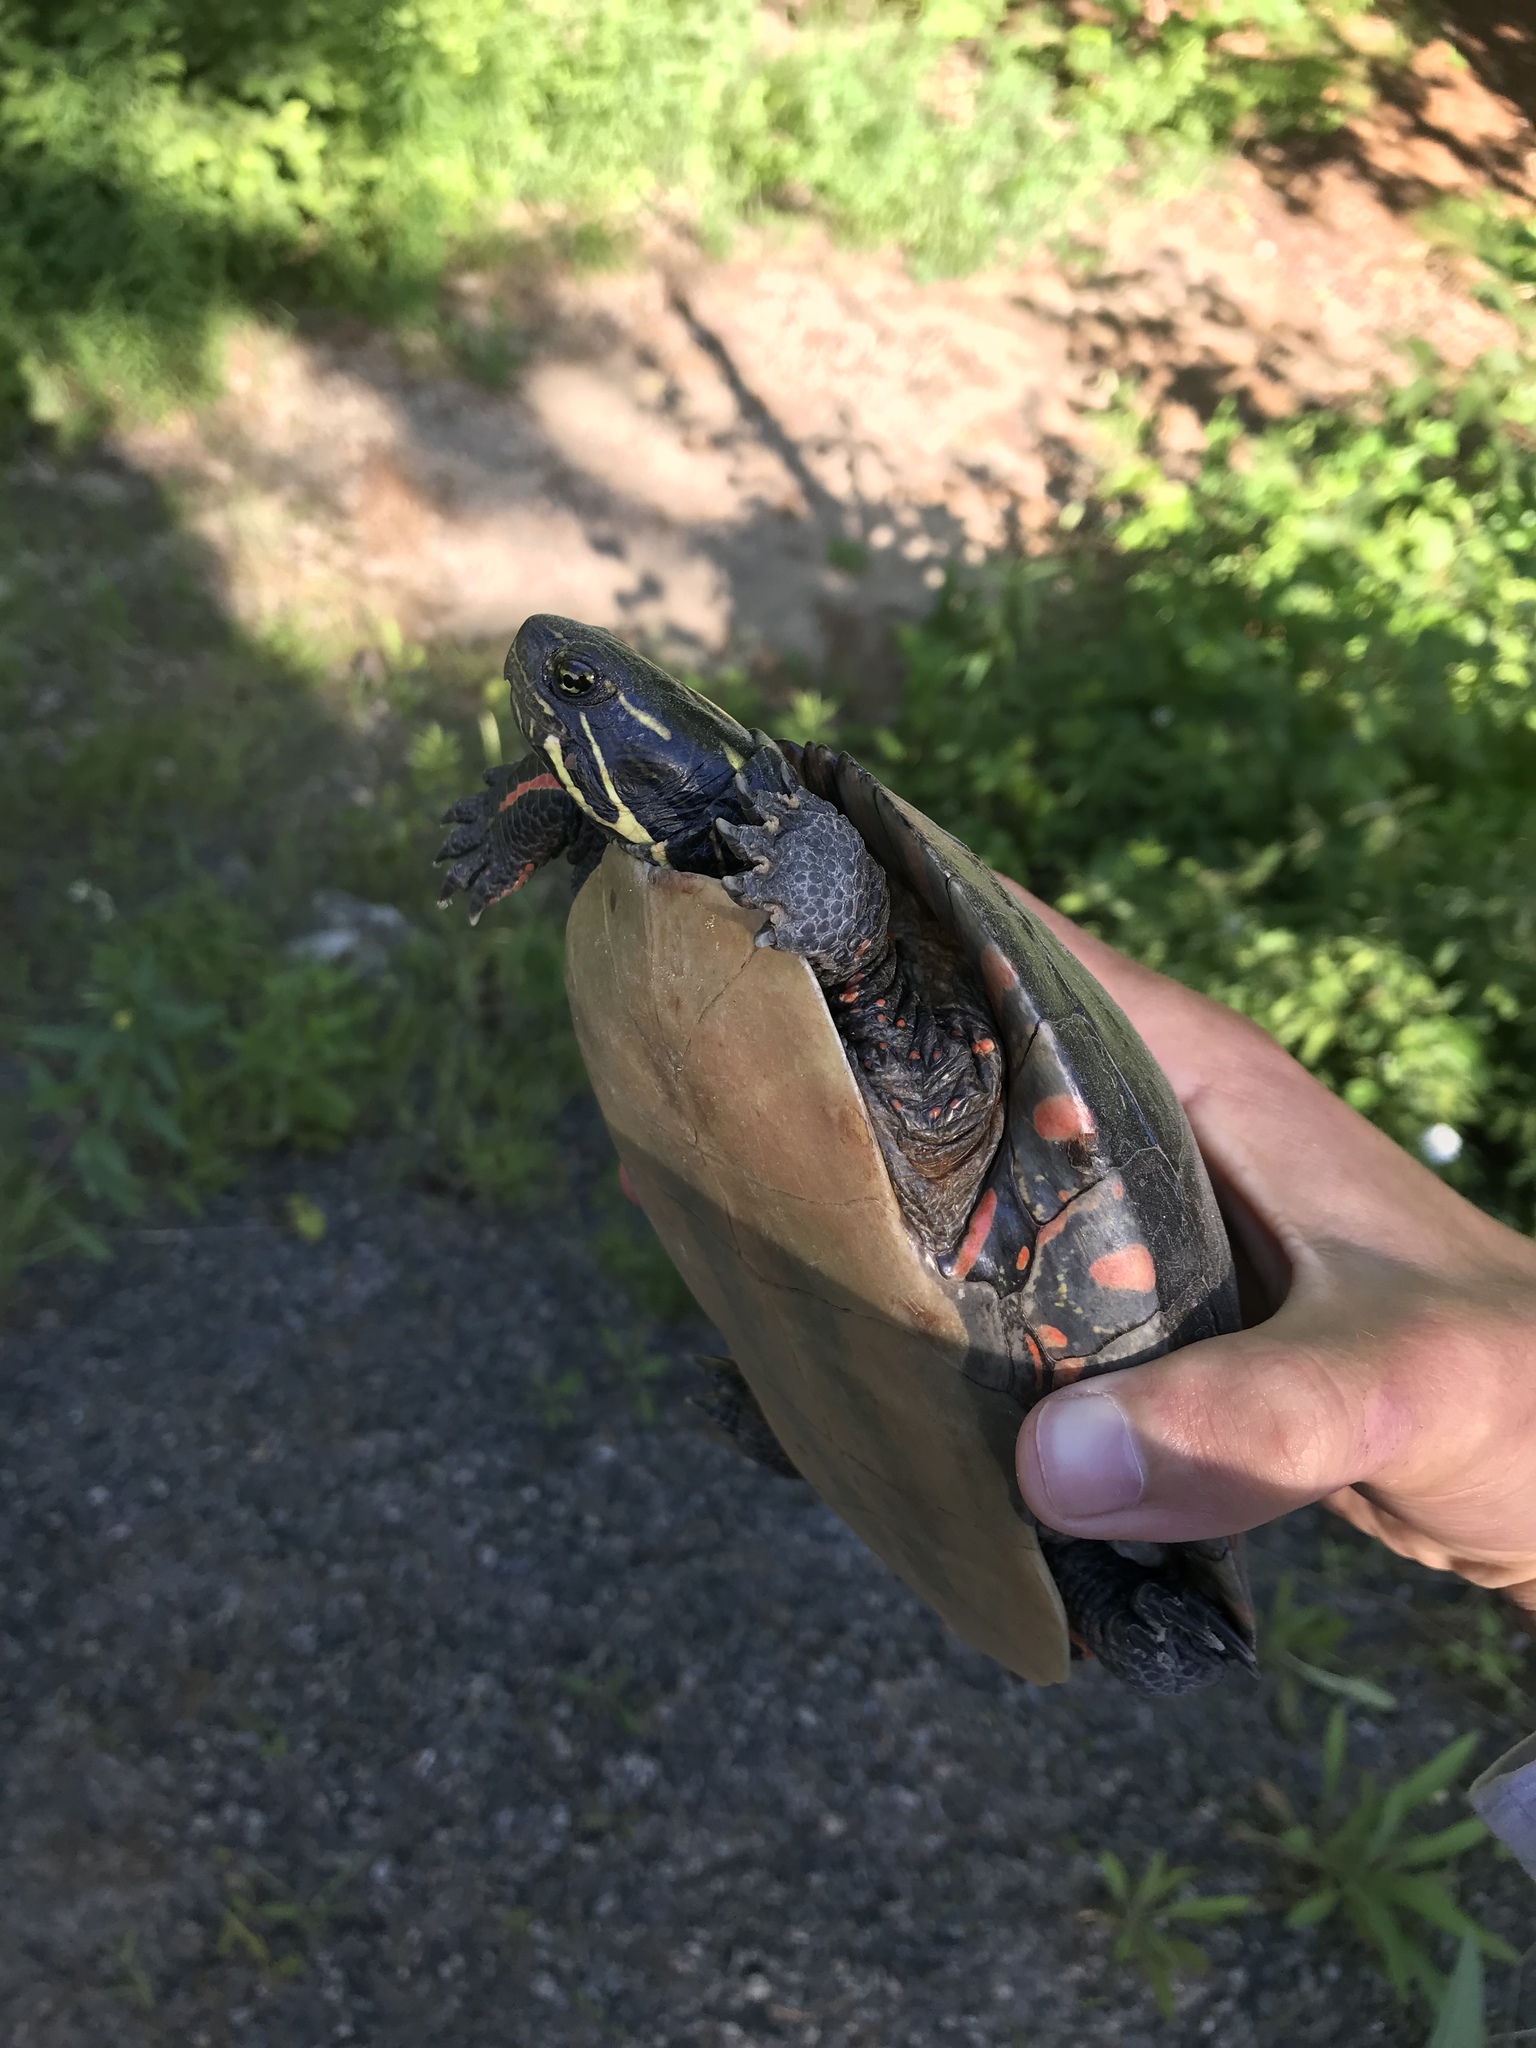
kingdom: Animalia
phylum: Chordata
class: Testudines
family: Emydidae
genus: Chrysemys
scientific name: Chrysemys picta
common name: Painted turtle
